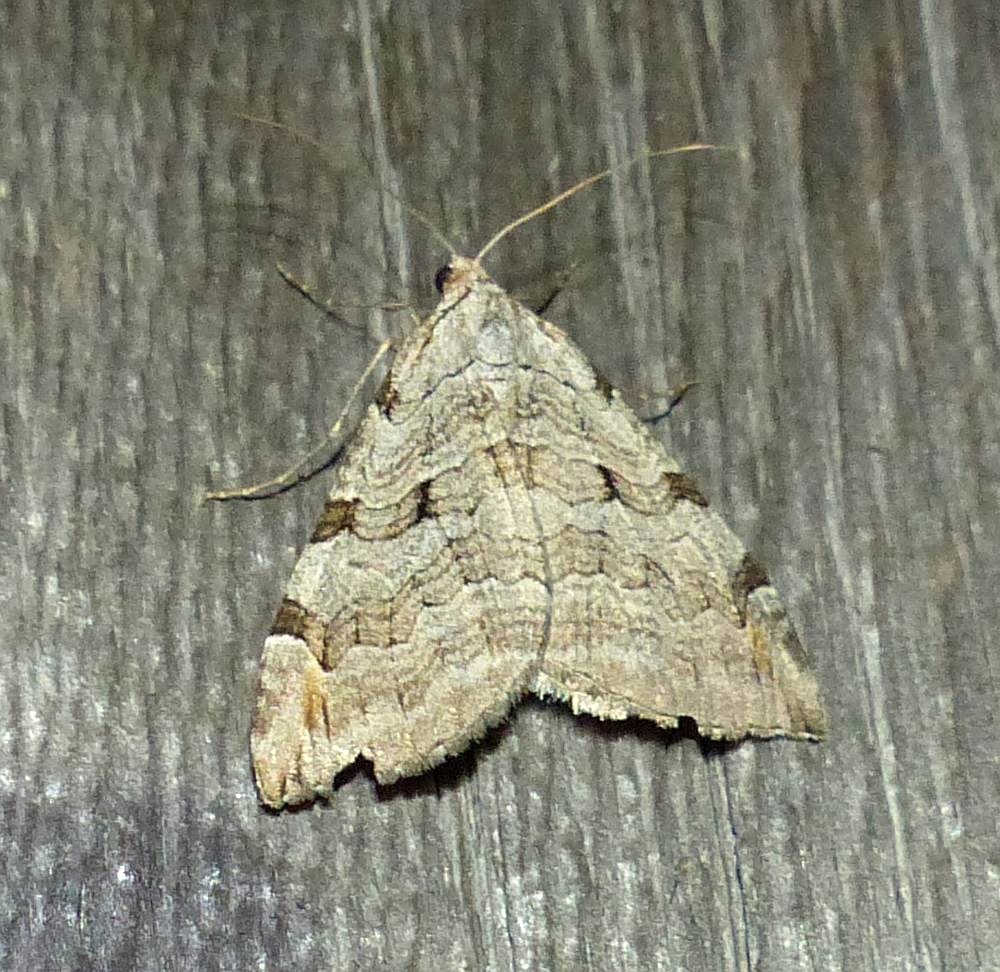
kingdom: Animalia
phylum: Arthropoda
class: Insecta
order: Lepidoptera
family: Geometridae
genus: Aplocera
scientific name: Aplocera plagiata
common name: Treble-bar
